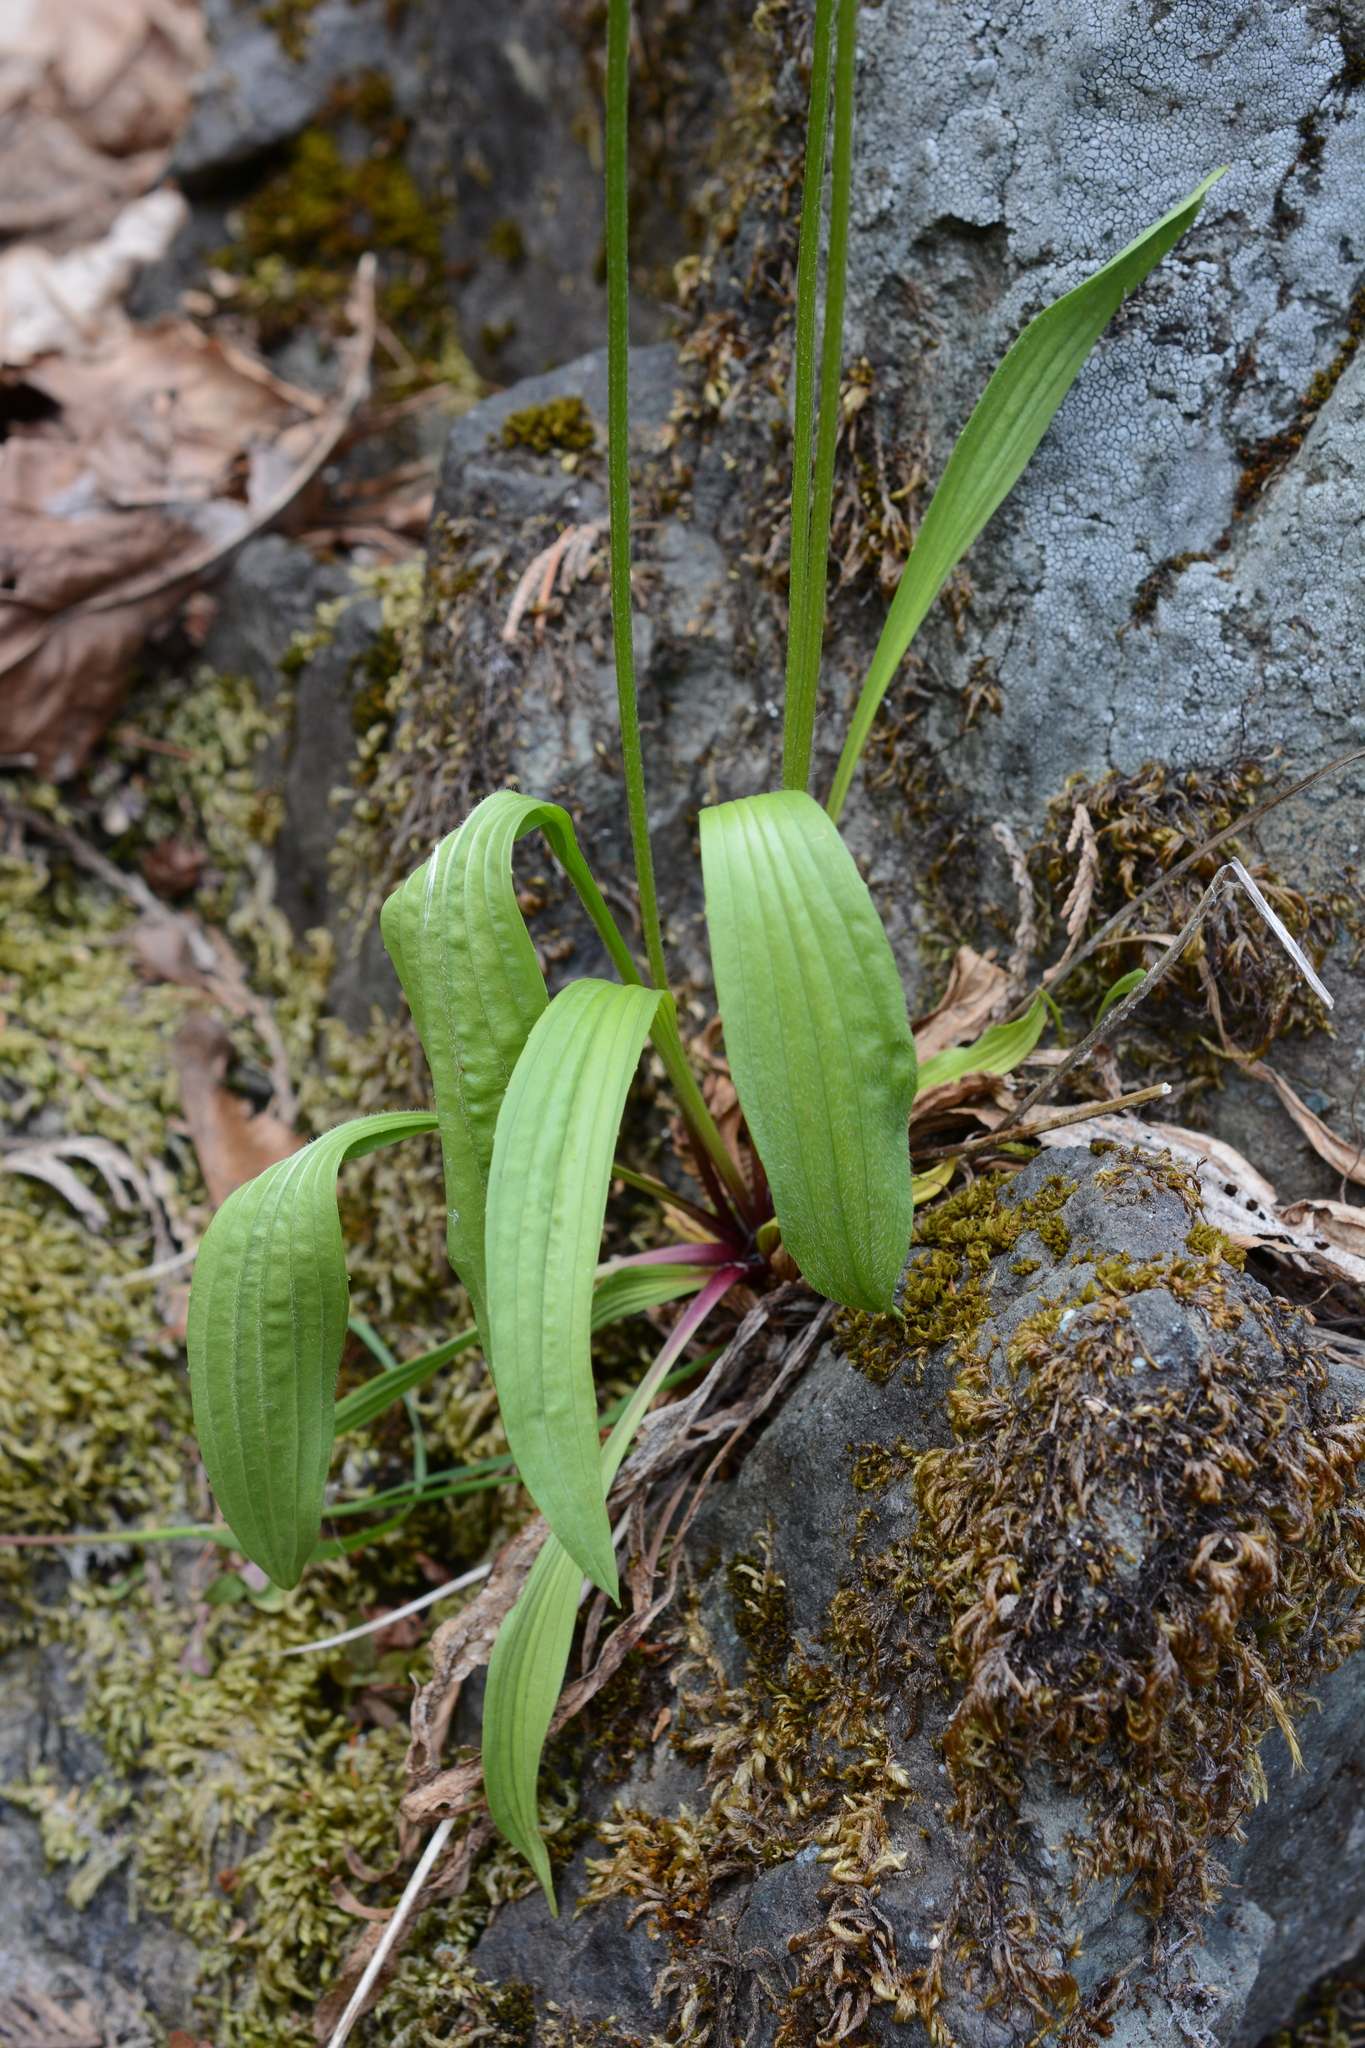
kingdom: Plantae
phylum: Tracheophyta
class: Magnoliopsida
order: Lamiales
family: Plantaginaceae
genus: Plantago
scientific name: Plantago lanceolata
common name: Ribwort plantain
